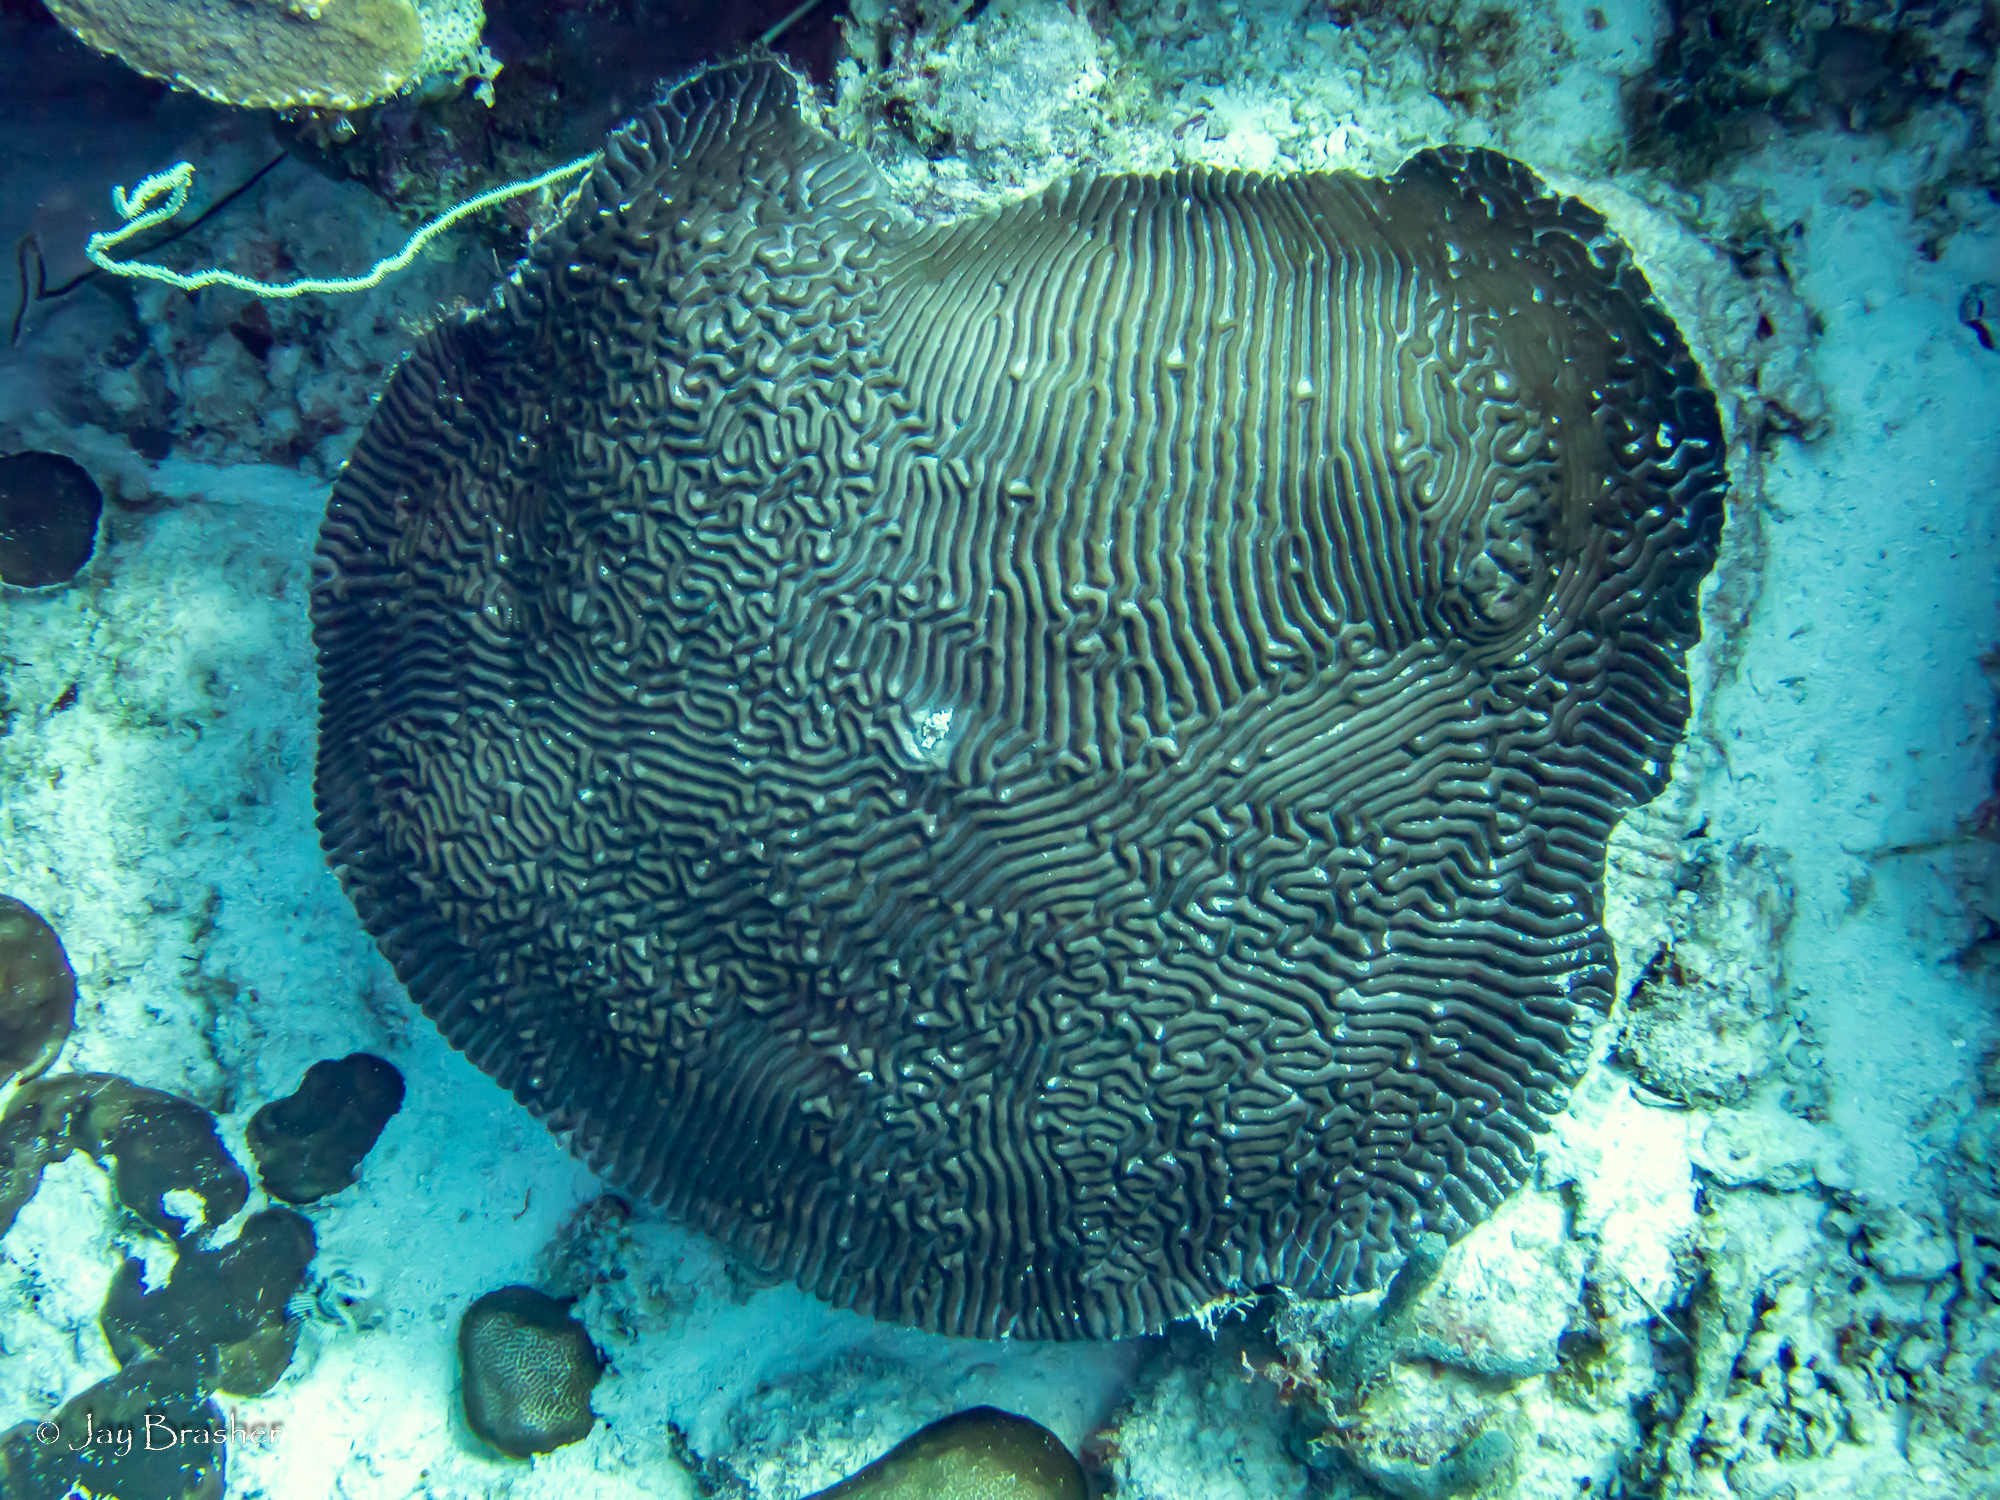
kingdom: Animalia
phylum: Cnidaria
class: Anthozoa
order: Antipatharia
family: Antipathidae
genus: Stichopathes
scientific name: Stichopathes luetkeni
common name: Black wire coral
